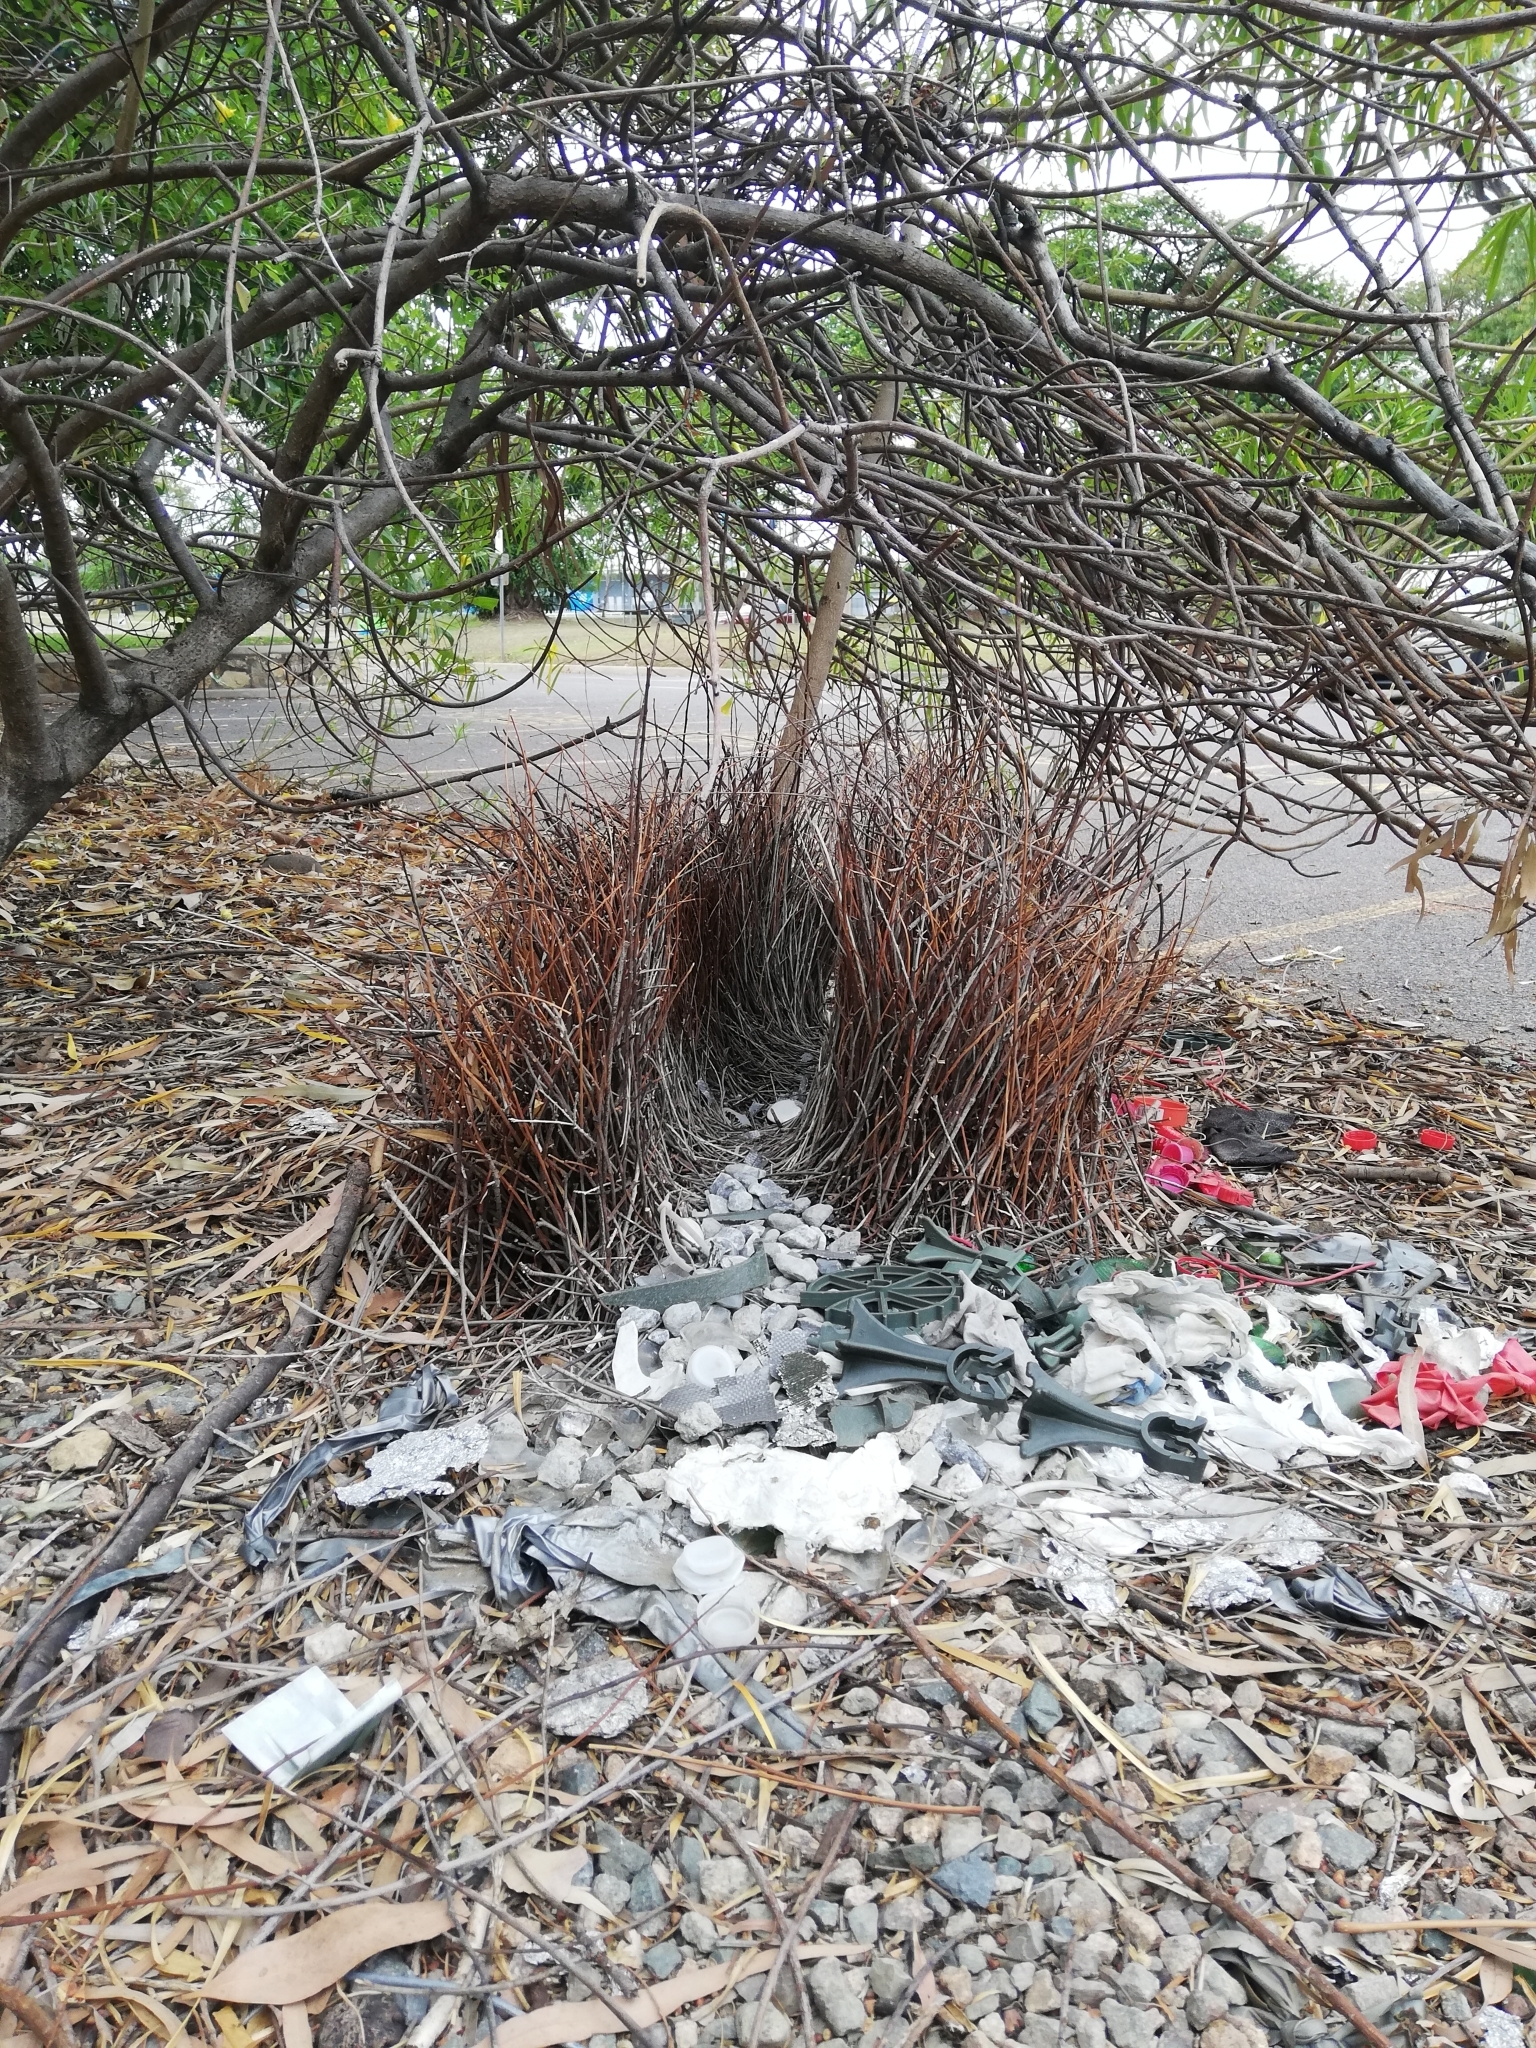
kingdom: Animalia
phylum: Chordata
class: Aves
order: Passeriformes
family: Ptilonorhynchidae
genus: Chlamydera
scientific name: Chlamydera nuchalis
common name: Great bowerbird
